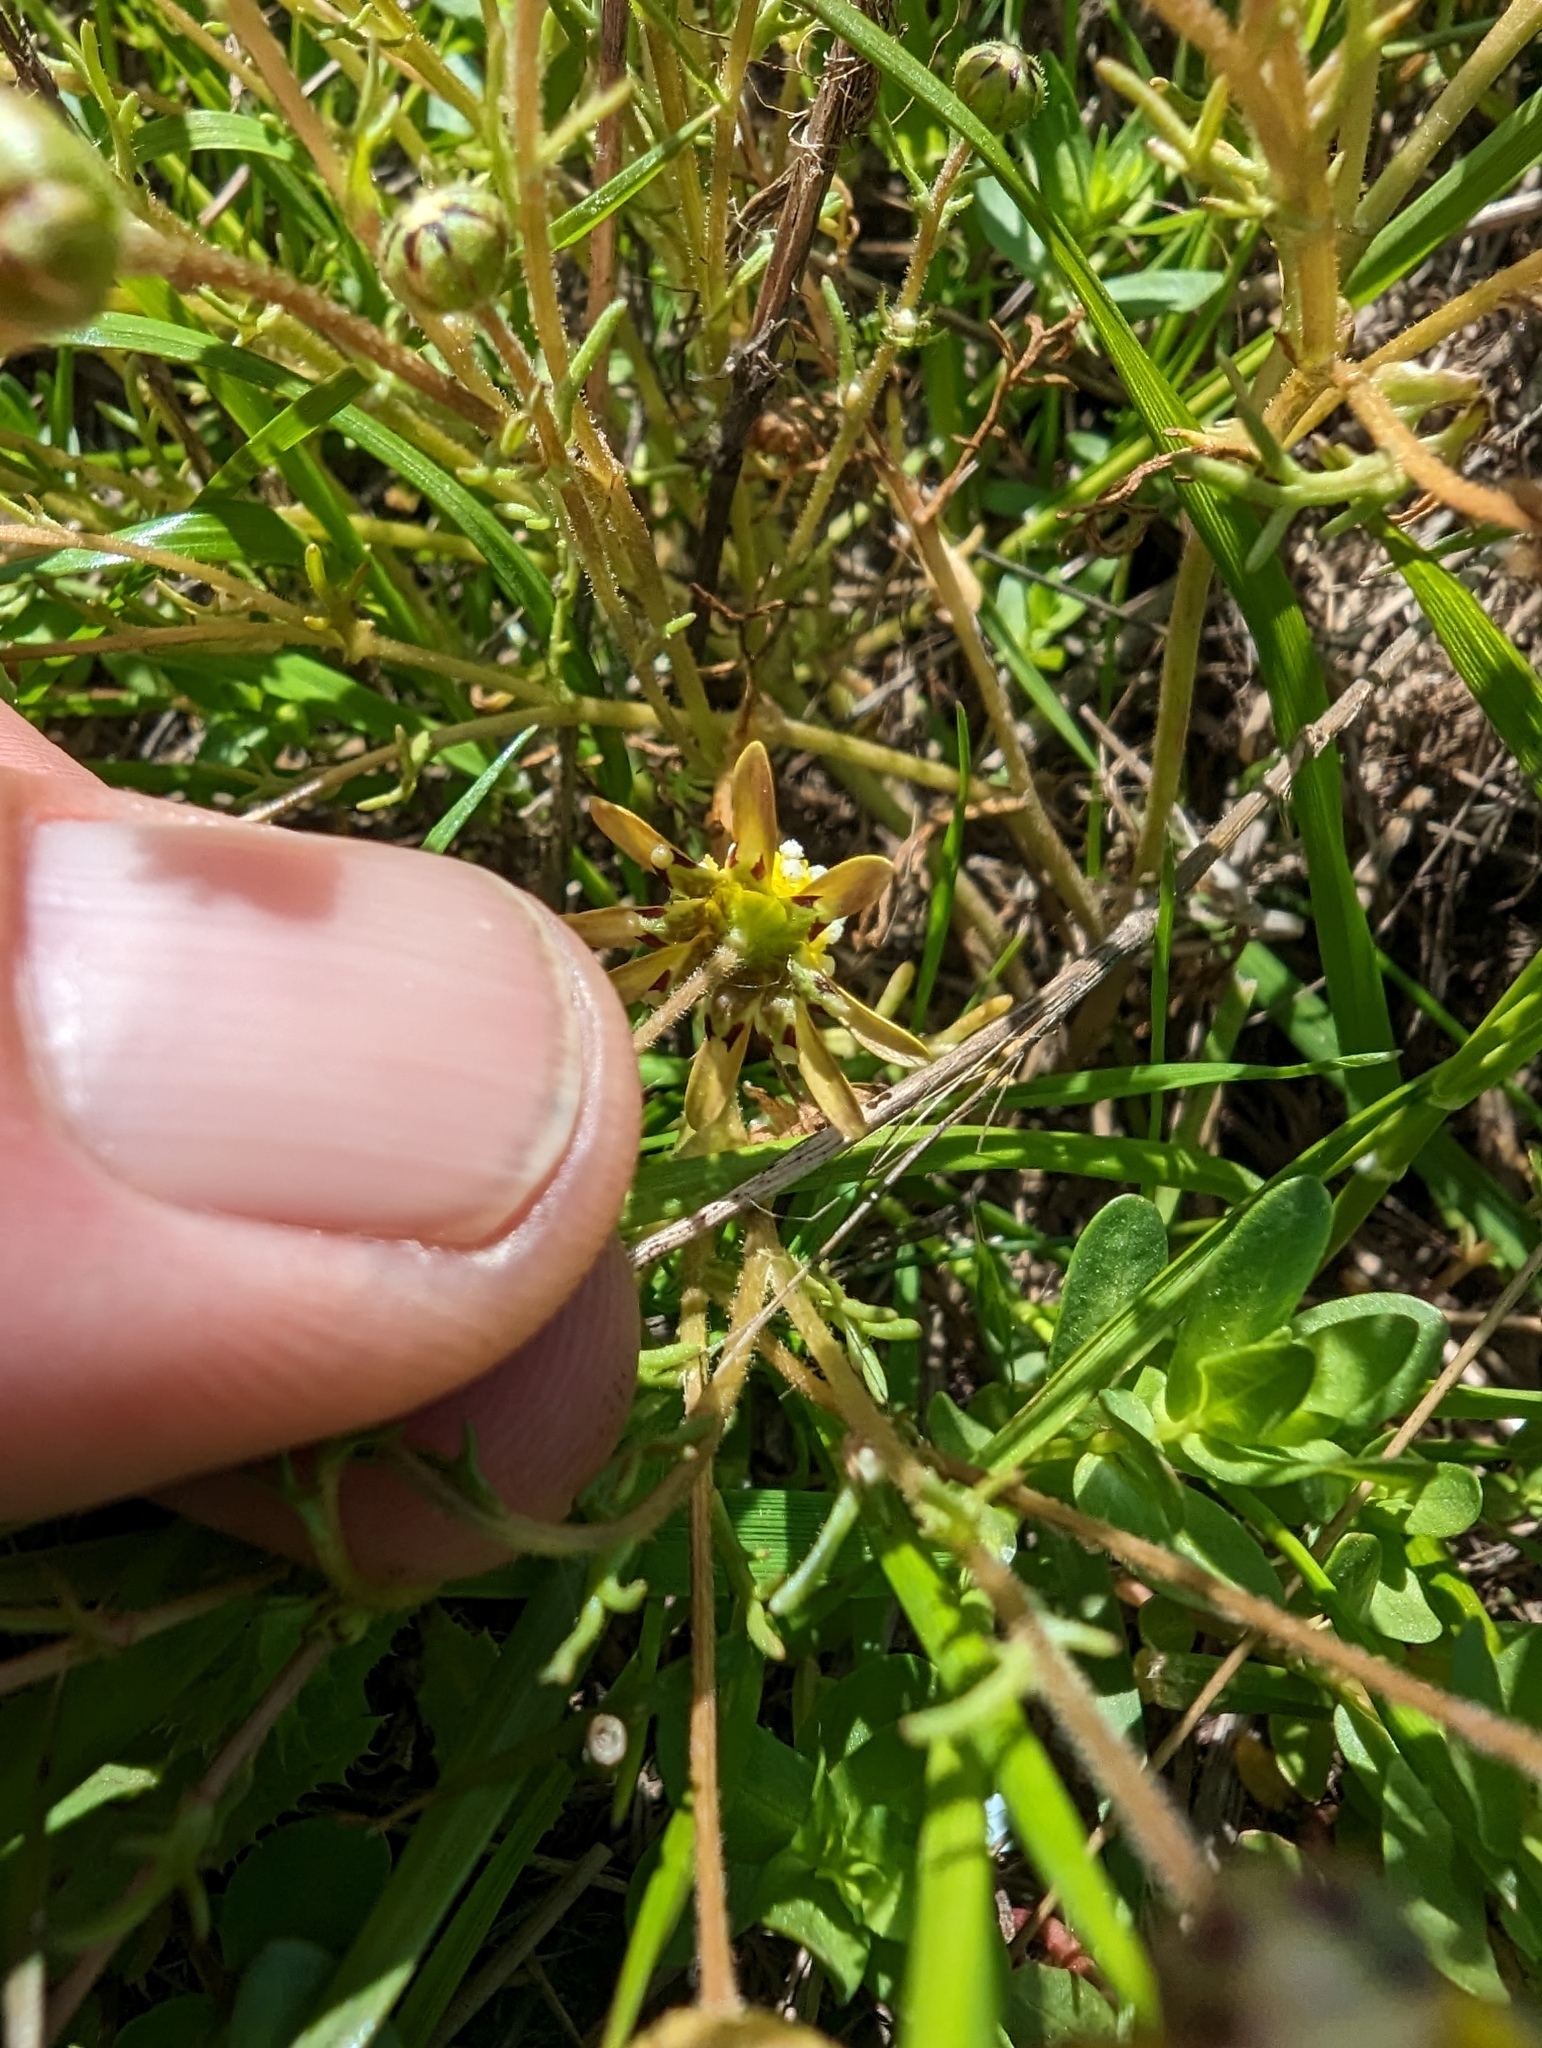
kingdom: Plantae
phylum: Tracheophyta
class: Magnoliopsida
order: Asterales
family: Asteraceae
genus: Blennosperma
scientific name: Blennosperma nanum
